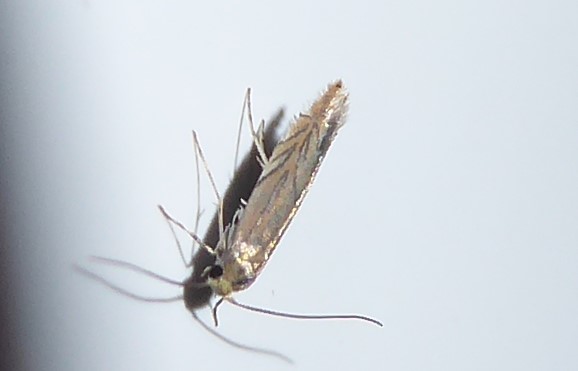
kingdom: Animalia
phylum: Arthropoda
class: Insecta
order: Lepidoptera
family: Gracillariidae
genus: Phyllonorycter
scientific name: Phyllonorycter messaniella
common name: Garden midget
